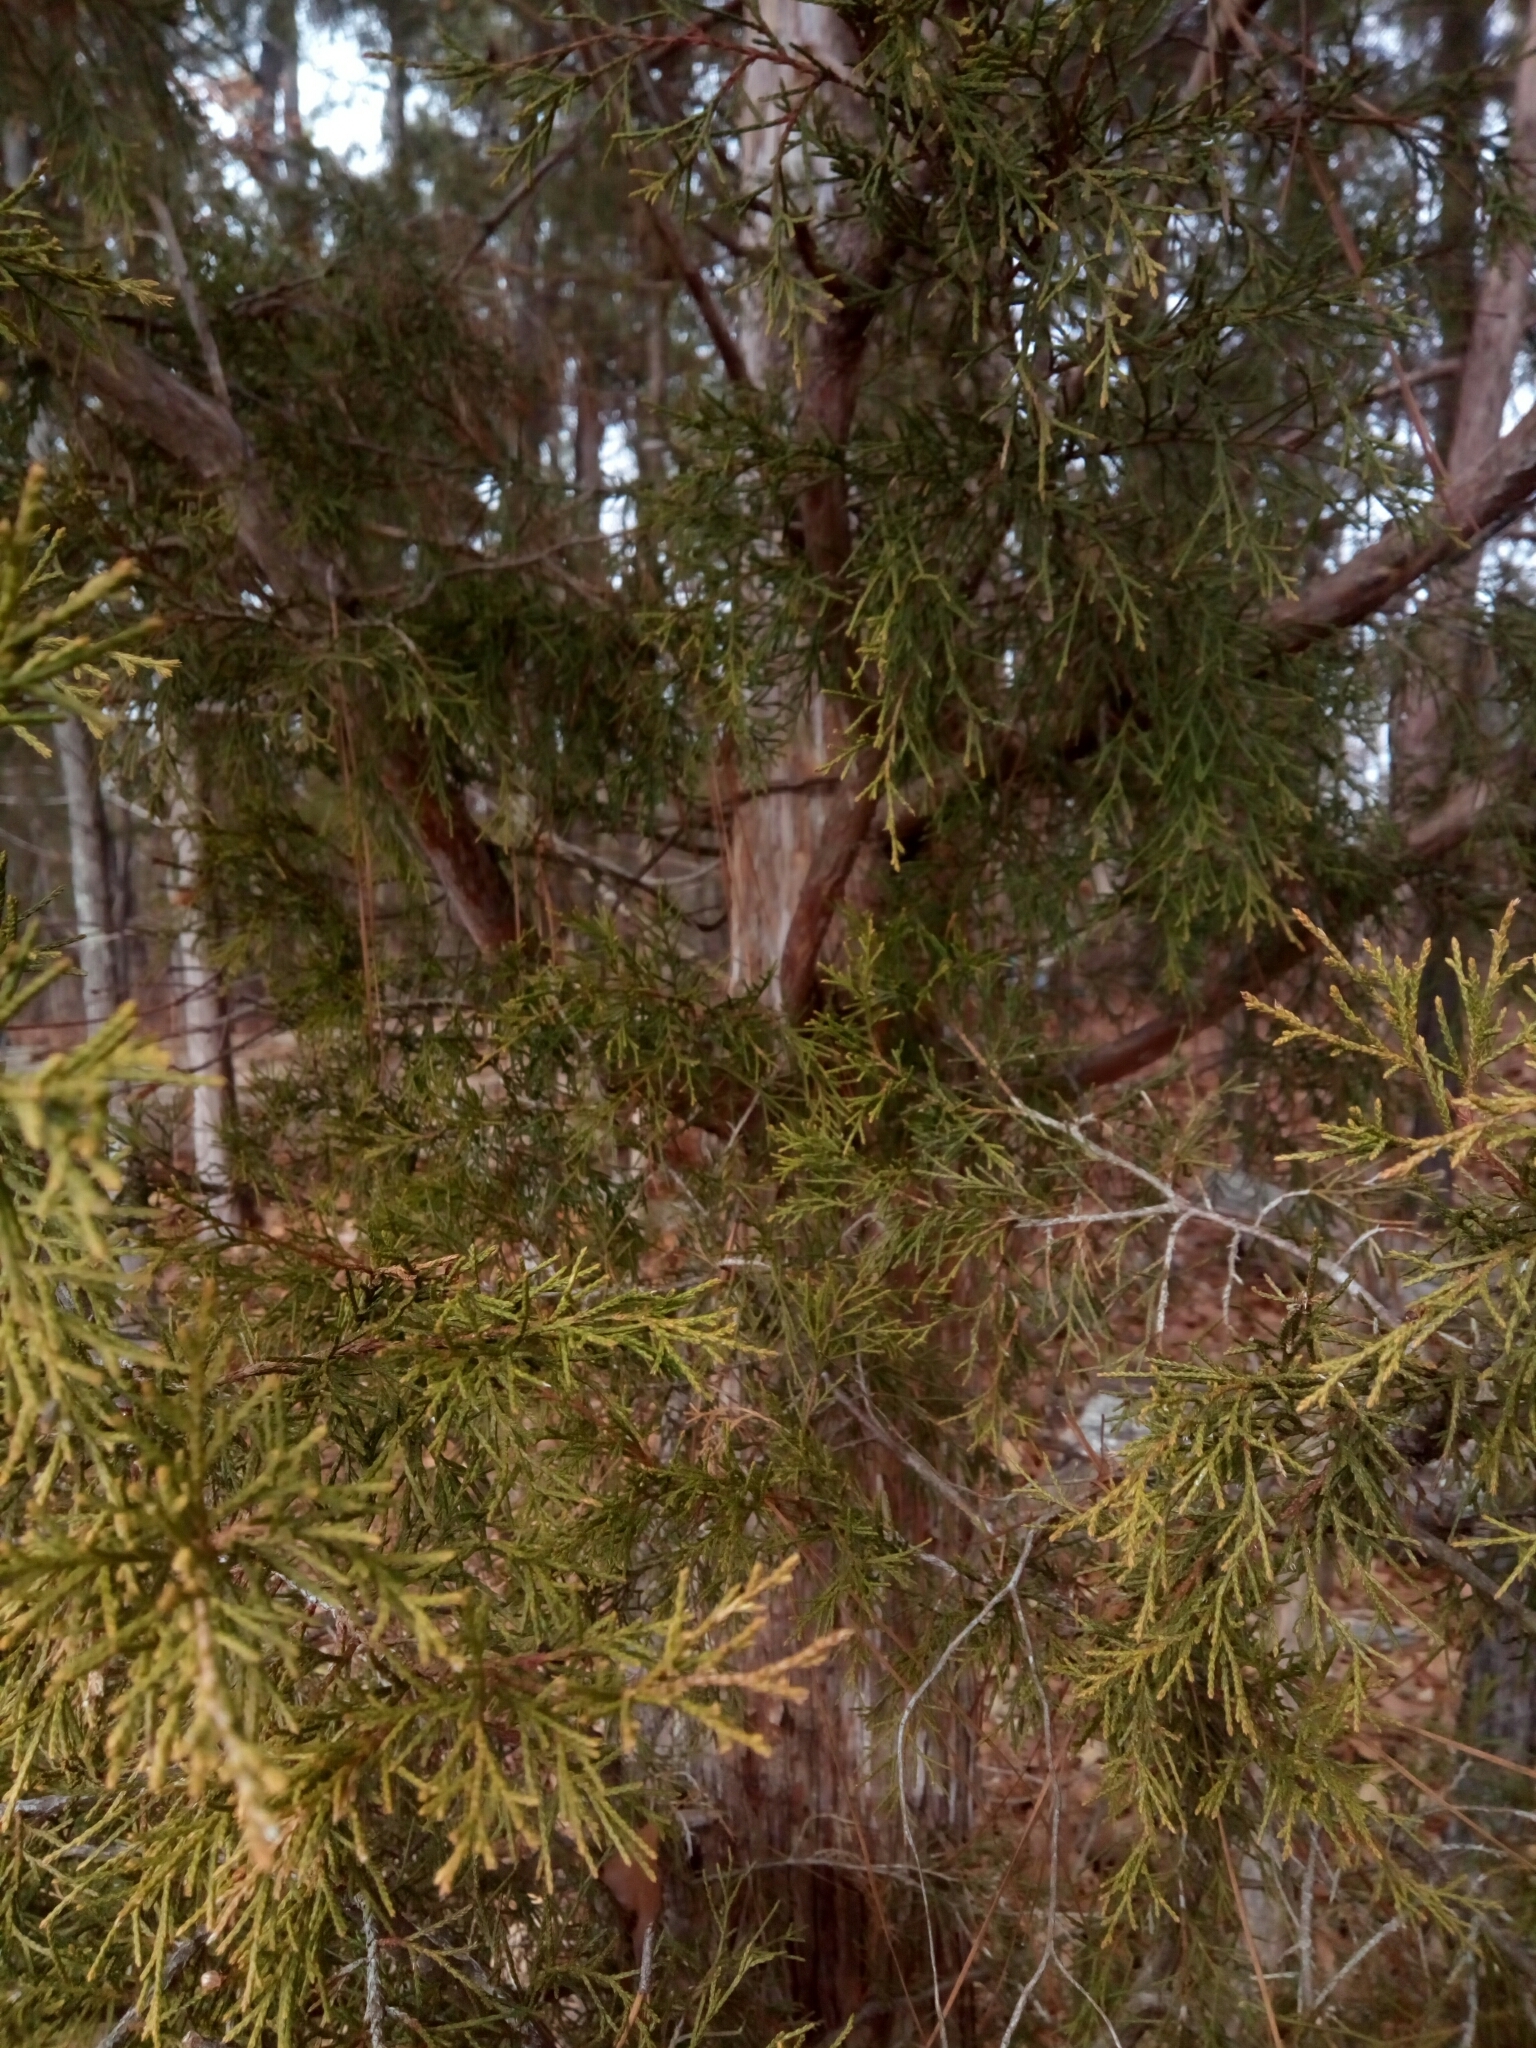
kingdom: Plantae
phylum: Tracheophyta
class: Pinopsida
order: Pinales
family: Cupressaceae
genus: Juniperus
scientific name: Juniperus virginiana
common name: Red juniper
